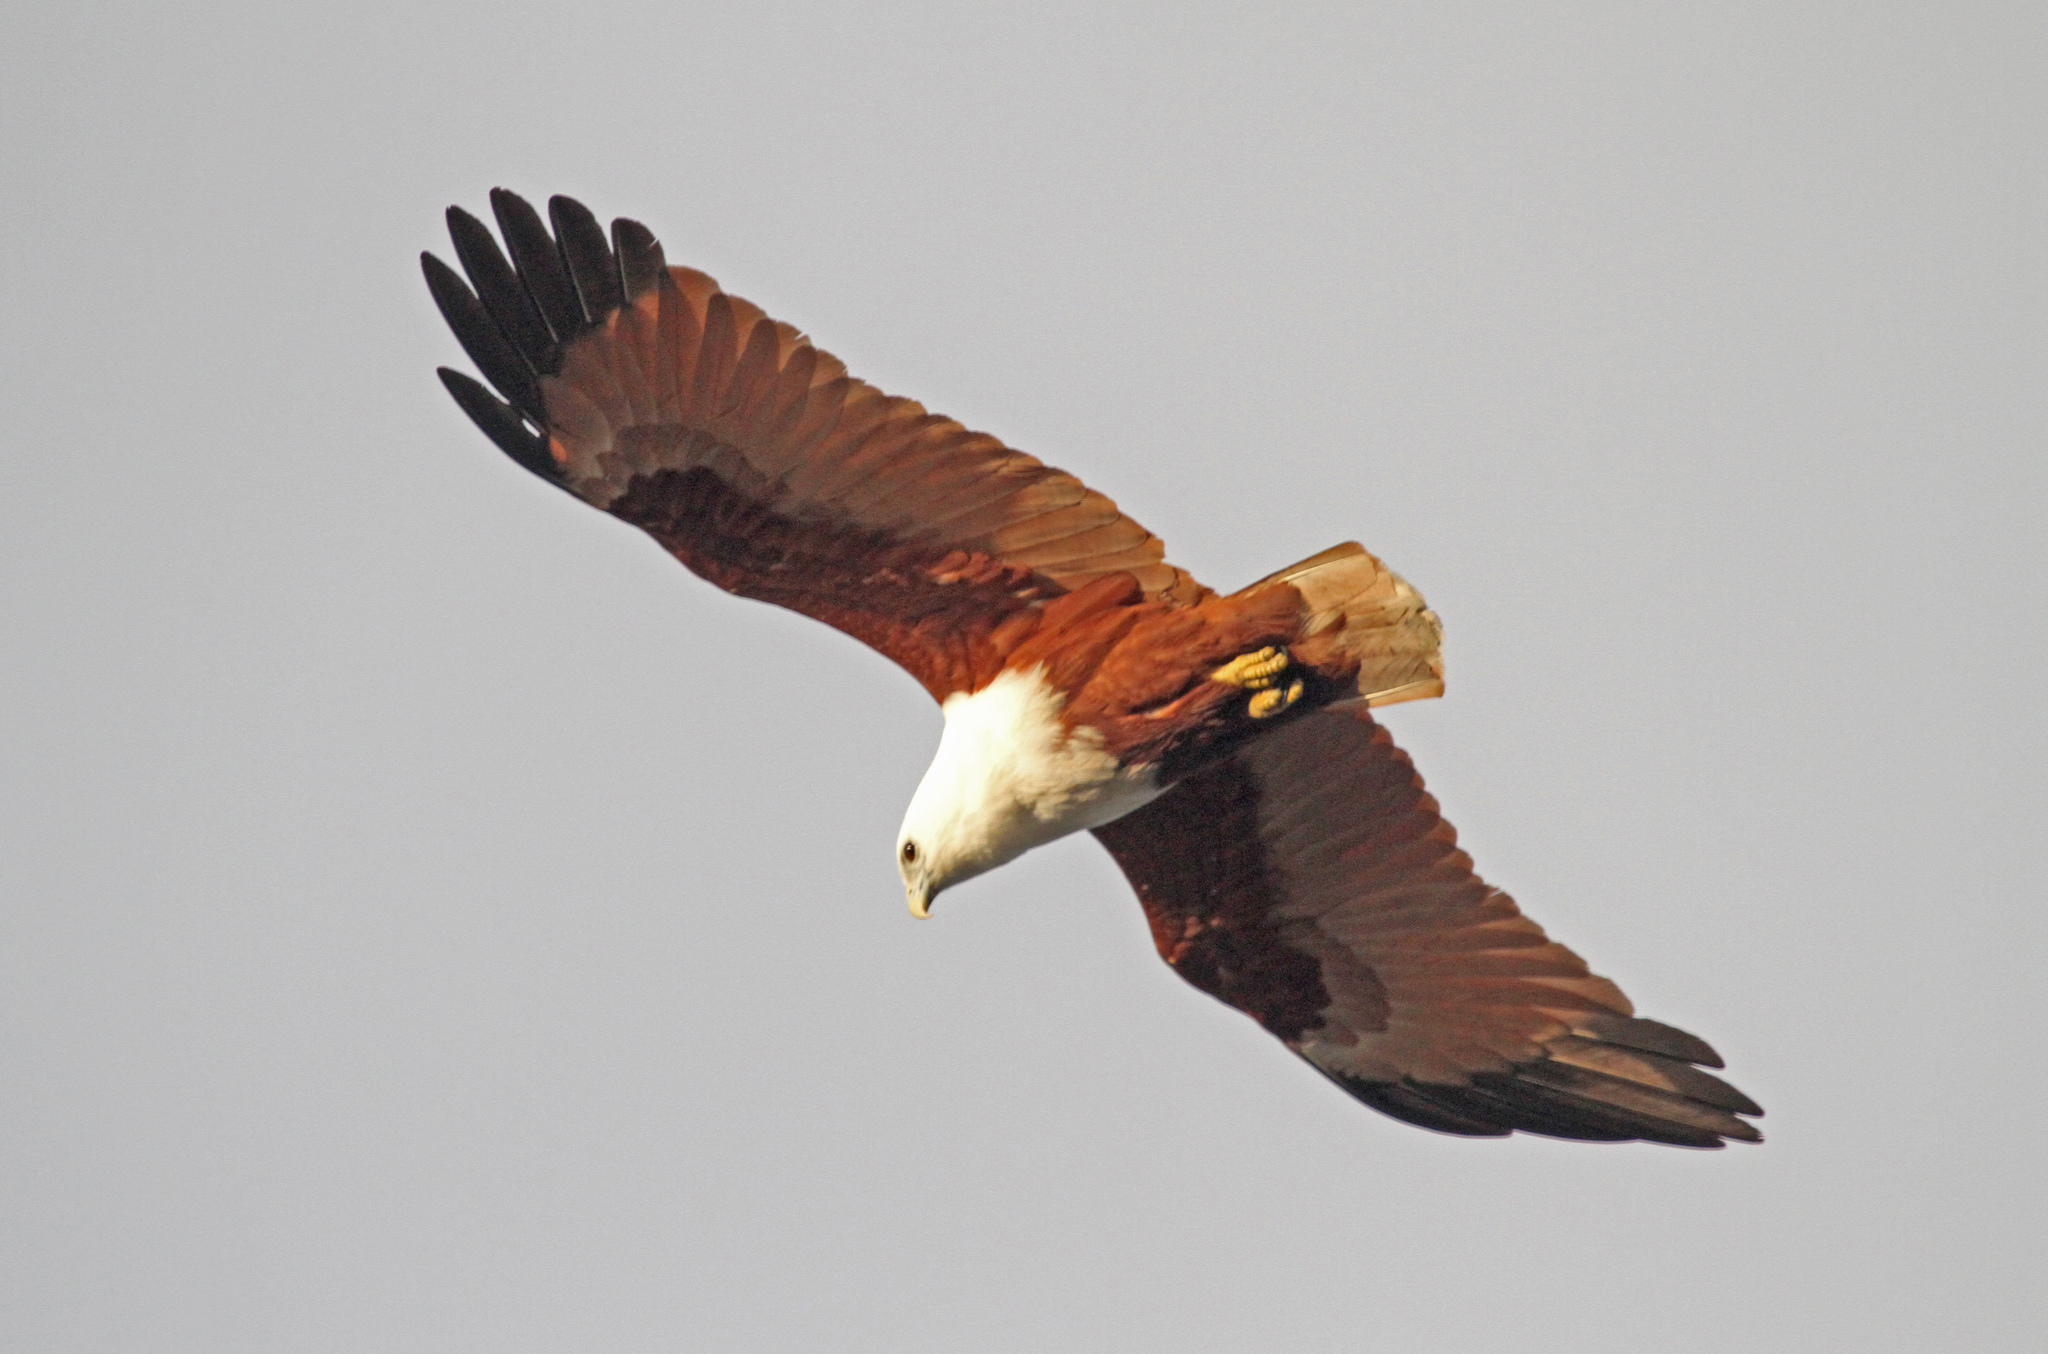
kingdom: Animalia
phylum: Chordata
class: Aves
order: Accipitriformes
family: Accipitridae
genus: Haliastur
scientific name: Haliastur indus
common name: Brahminy kite
